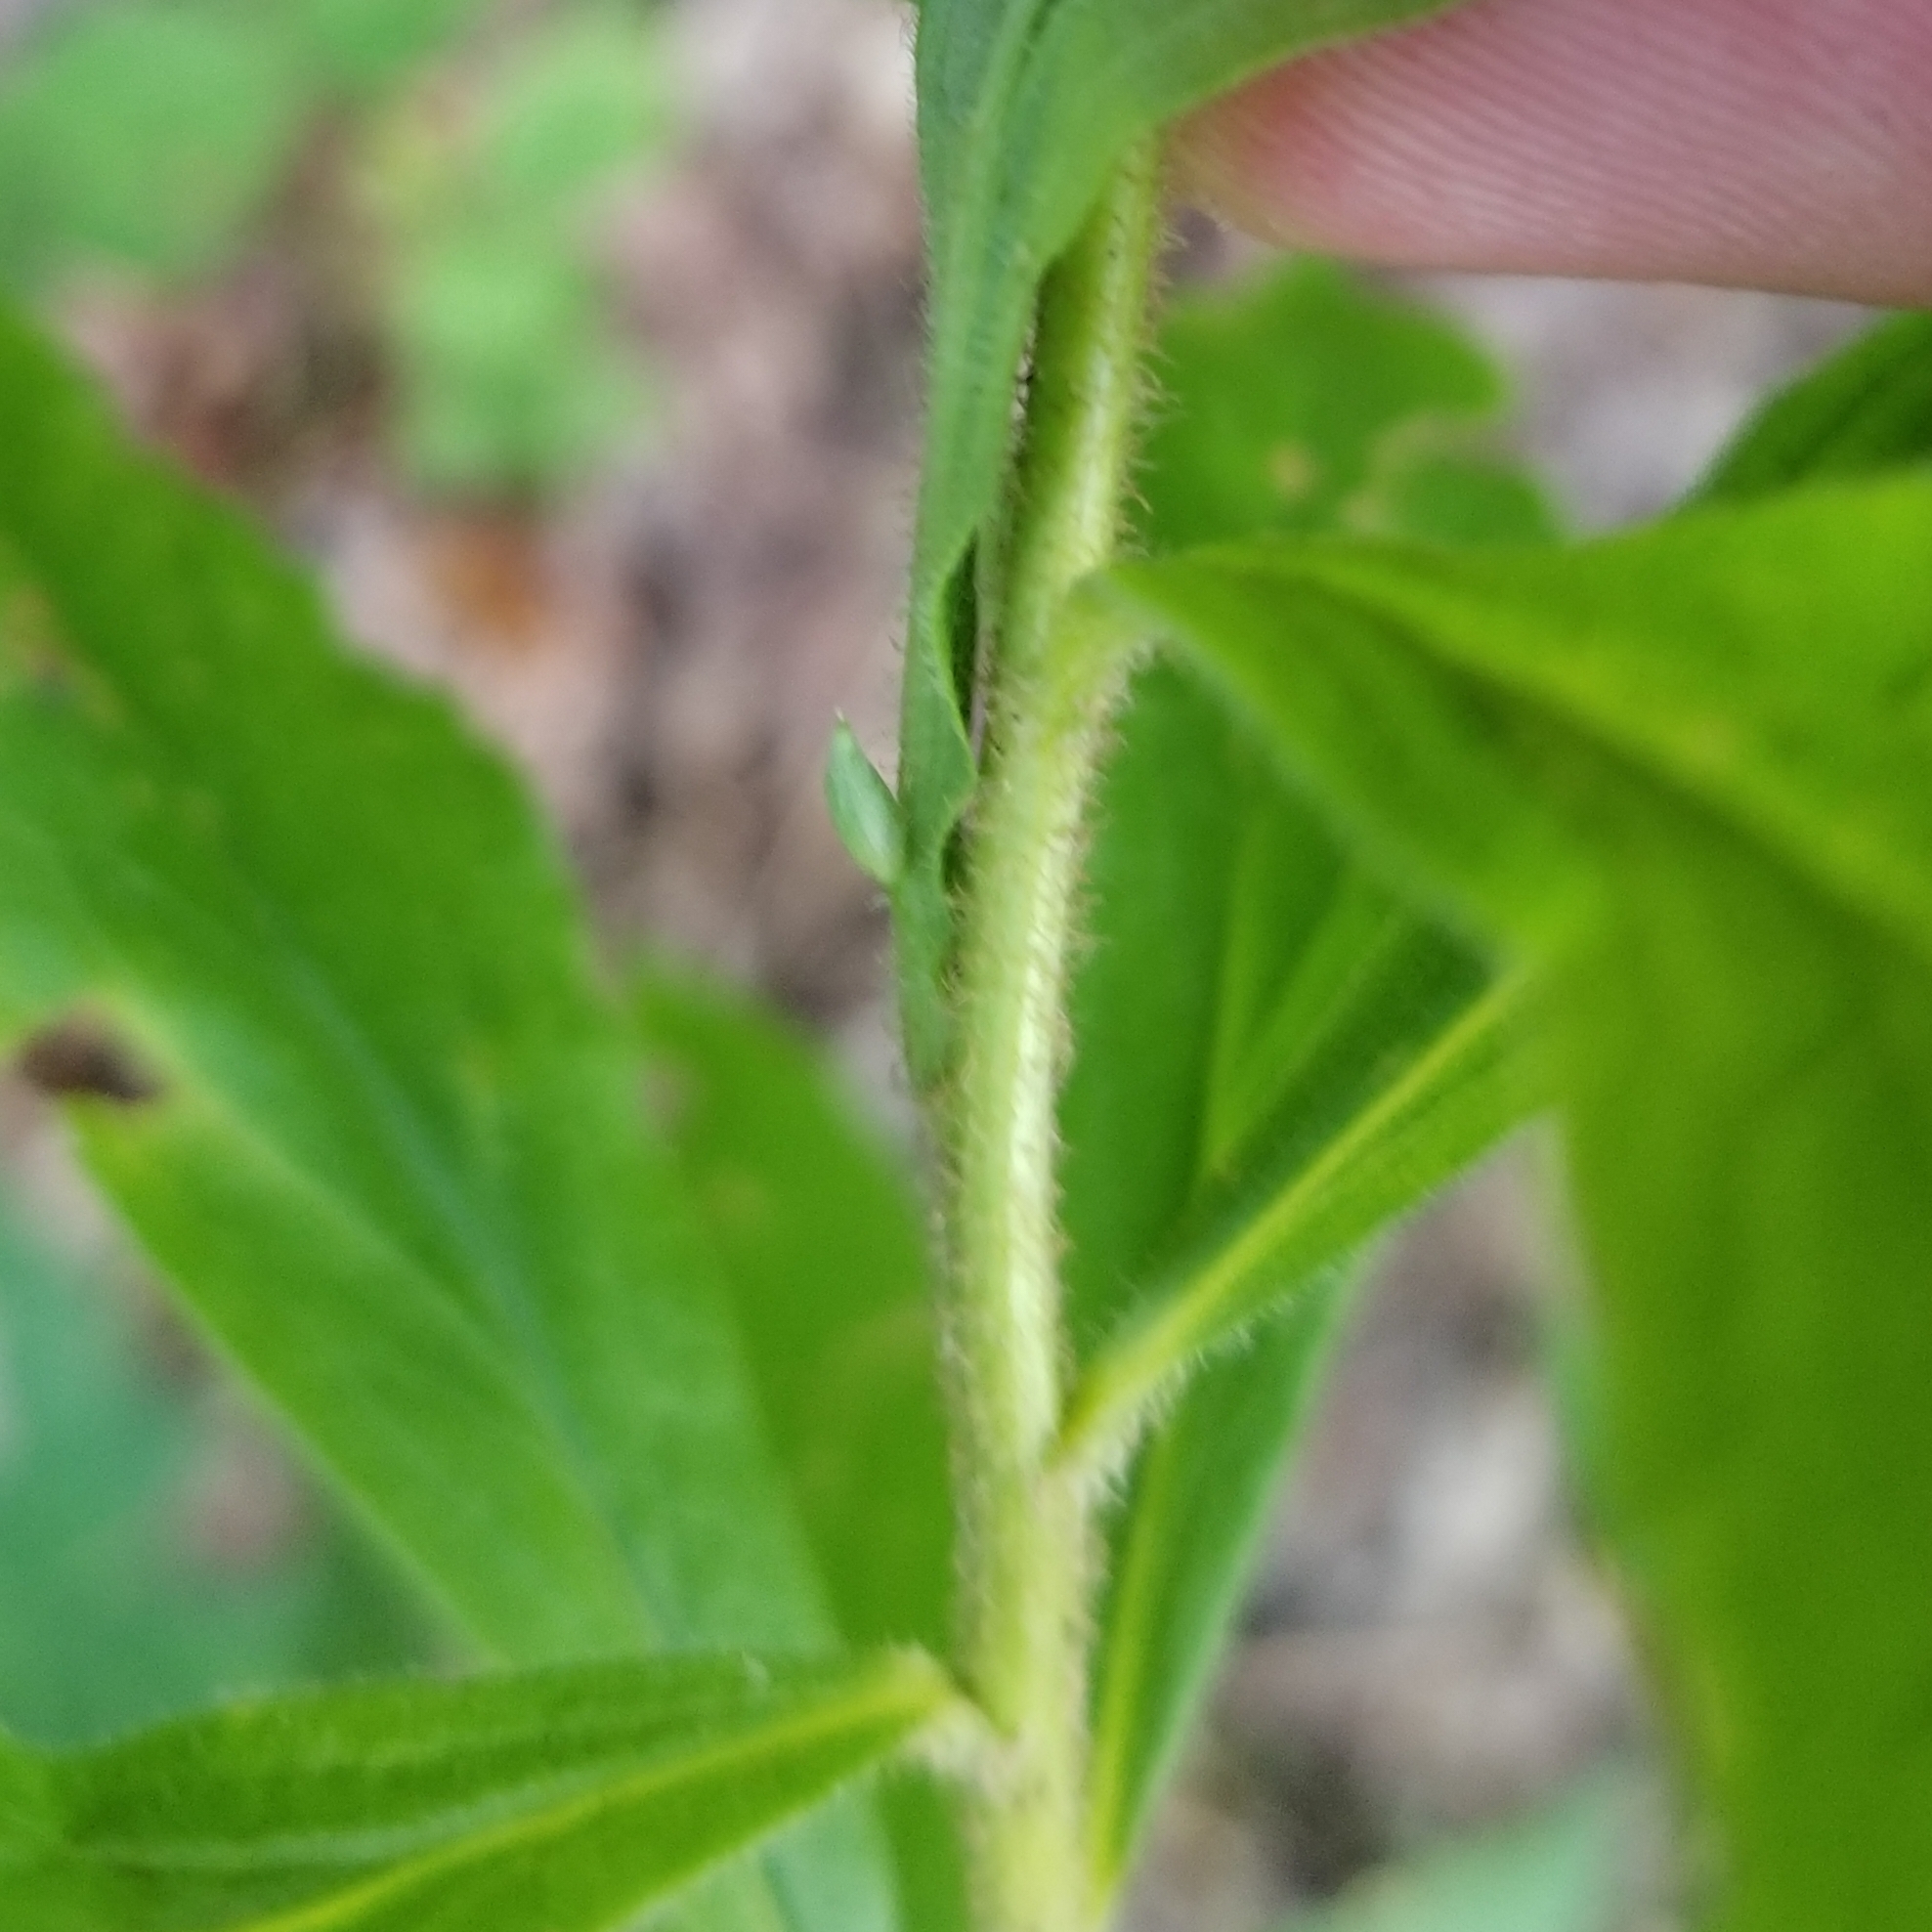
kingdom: Animalia
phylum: Arthropoda
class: Insecta
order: Diptera
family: Cecidomyiidae
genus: Rhopalomyia
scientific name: Rhopalomyia clarkei
